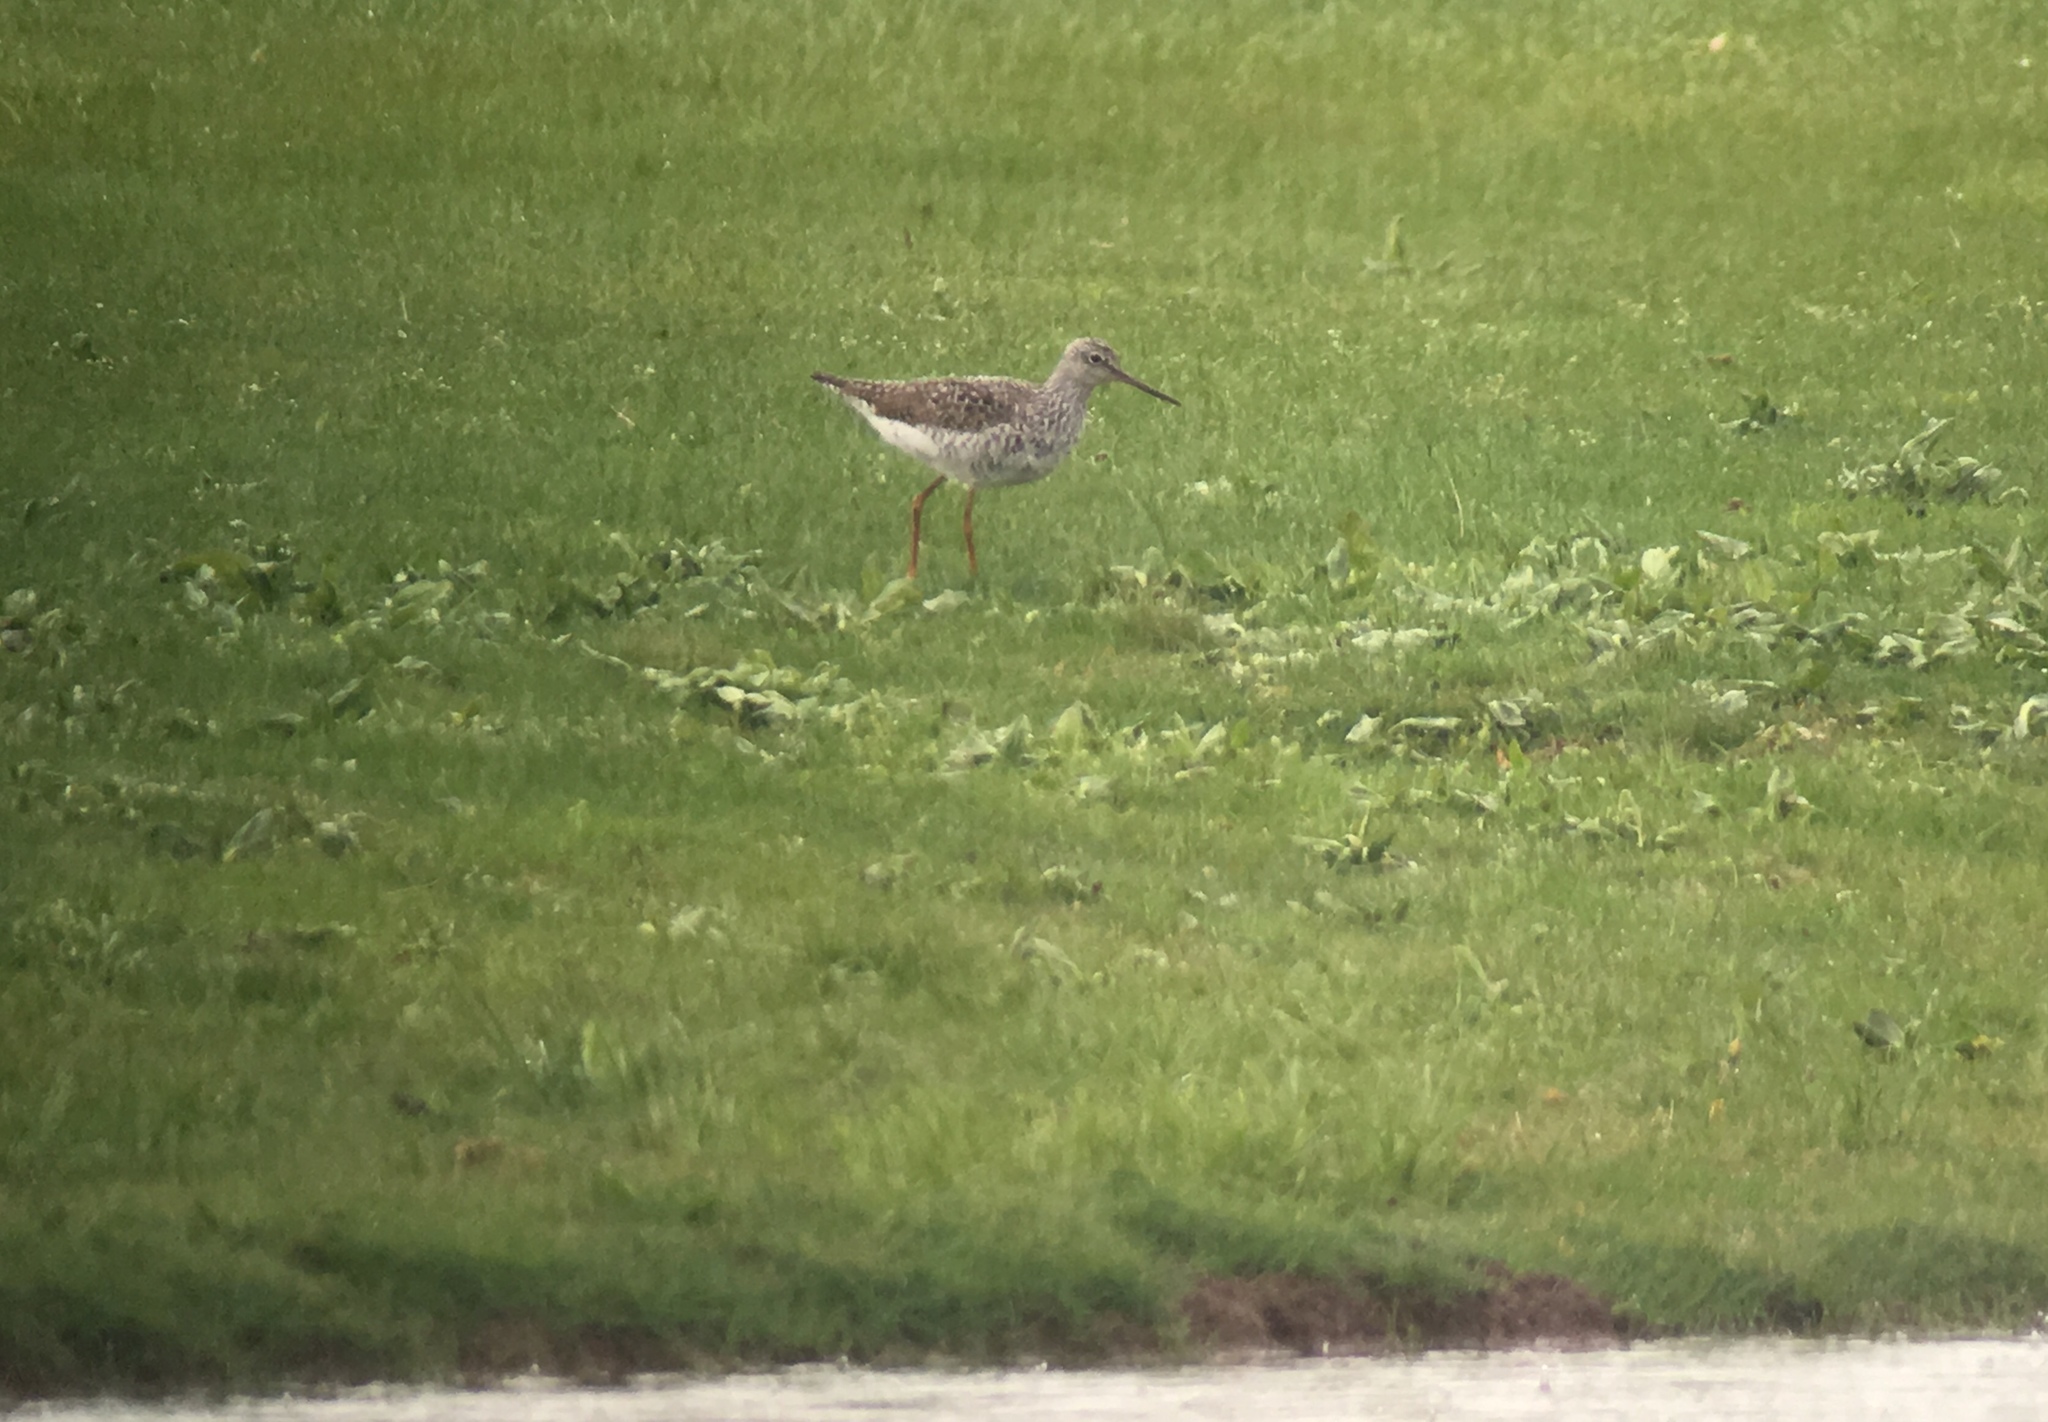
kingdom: Animalia
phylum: Chordata
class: Aves
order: Charadriiformes
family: Scolopacidae
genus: Tringa
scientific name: Tringa melanoleuca
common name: Greater yellowlegs
